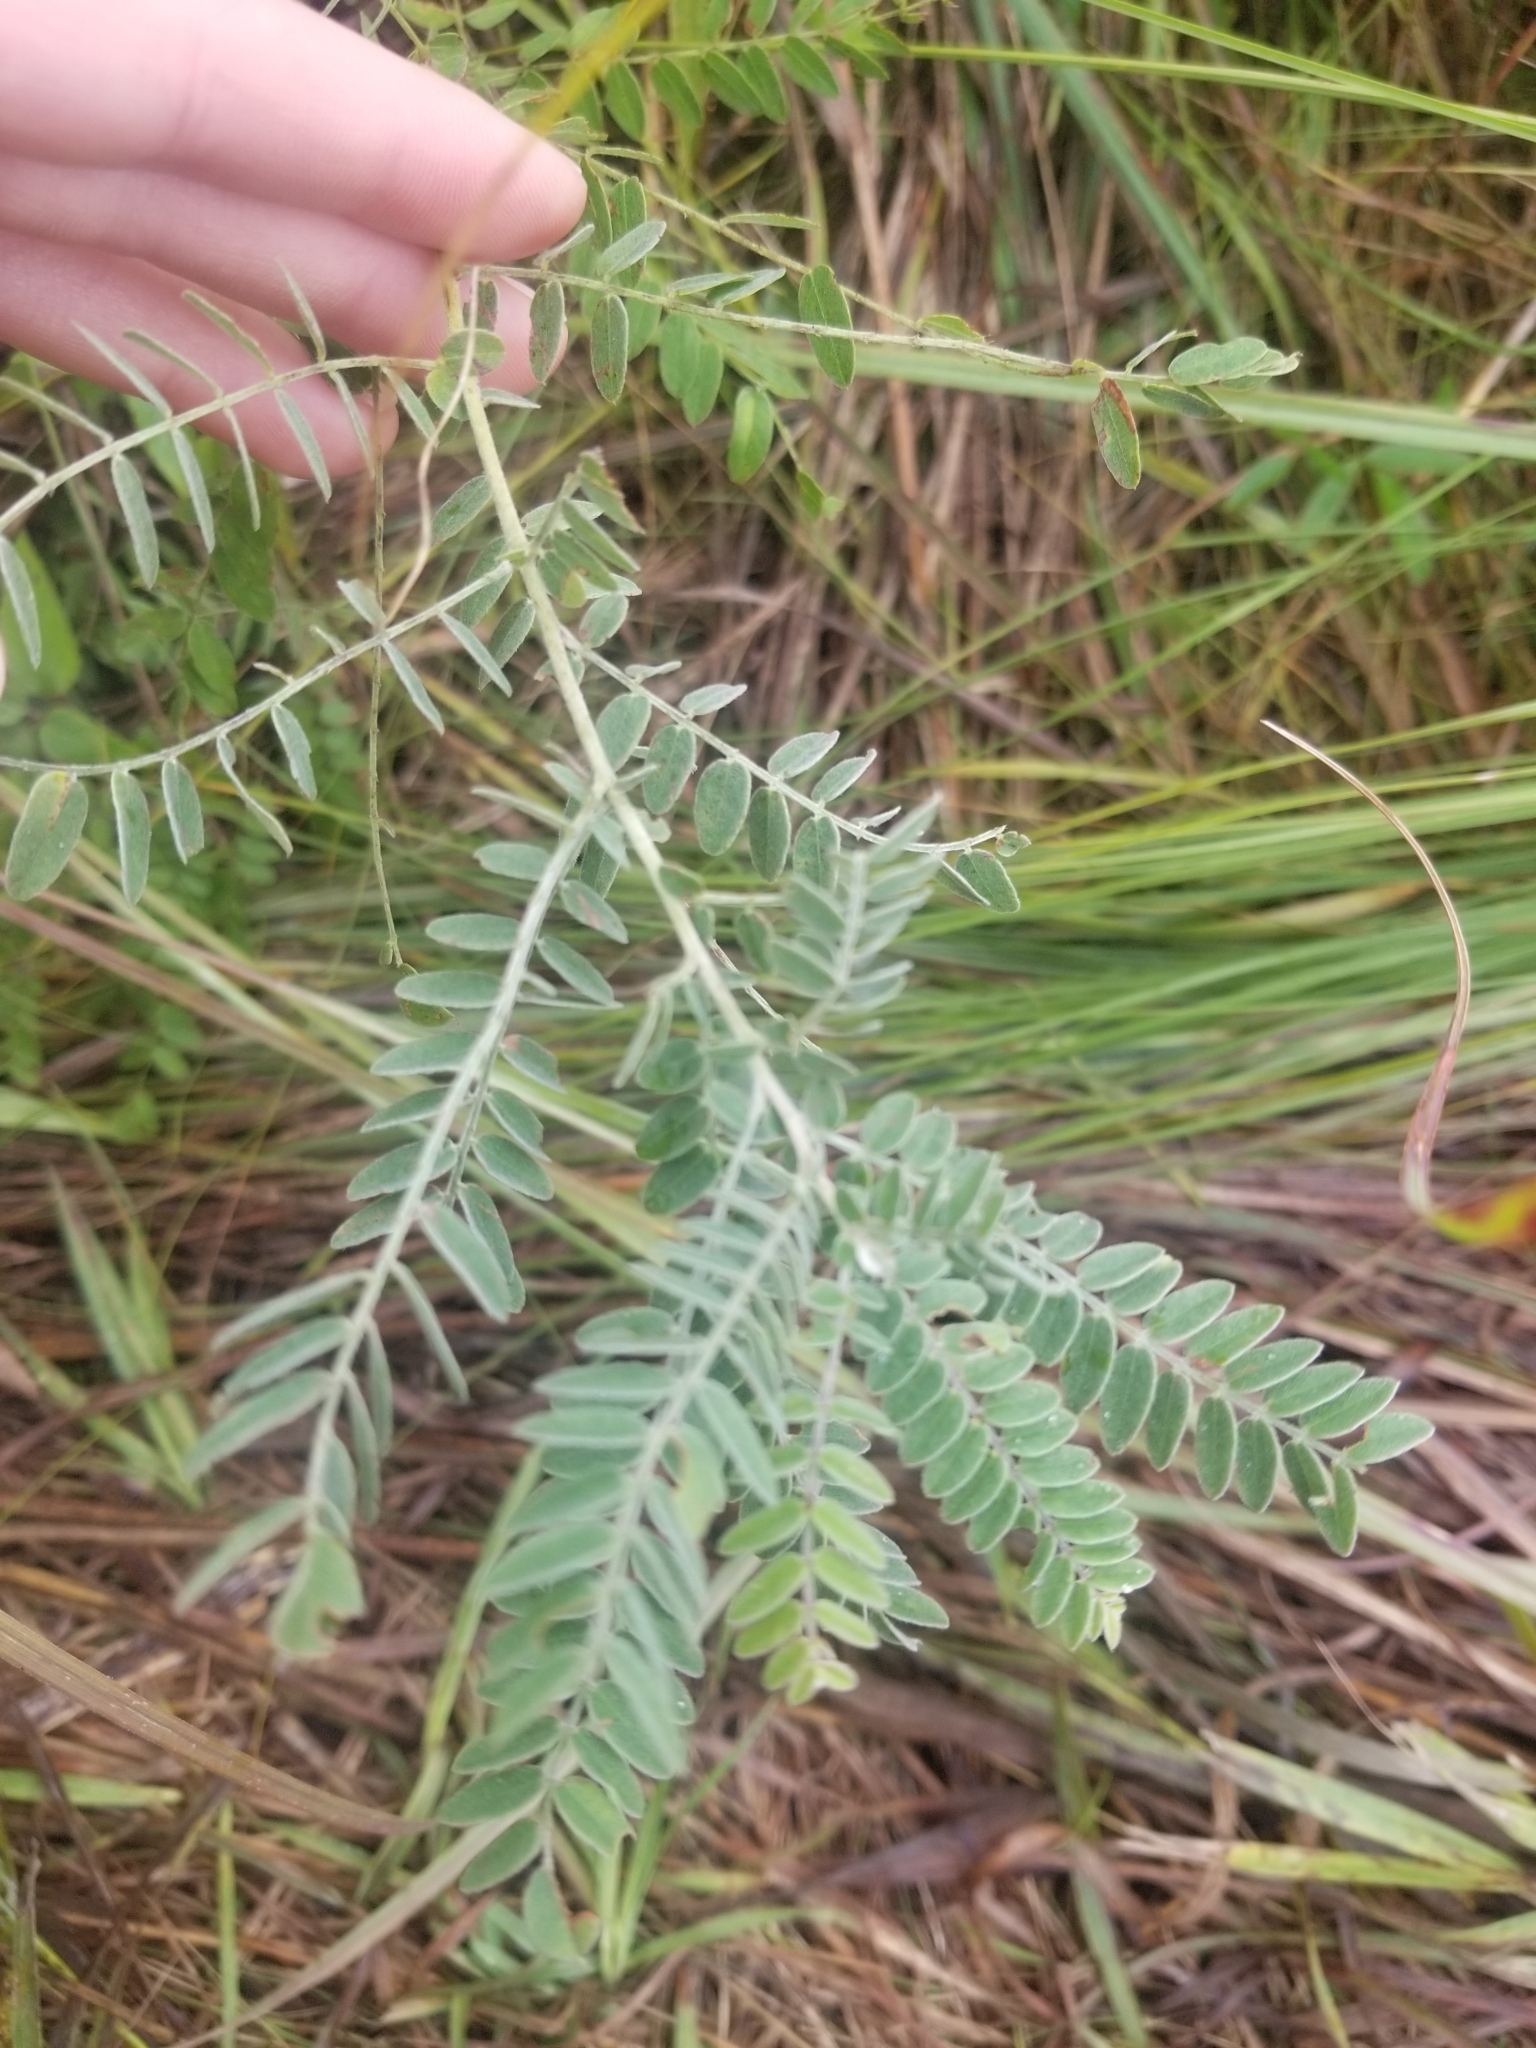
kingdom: Plantae
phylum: Tracheophyta
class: Magnoliopsida
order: Fabales
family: Fabaceae
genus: Amorpha
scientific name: Amorpha canescens
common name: Leadplant
